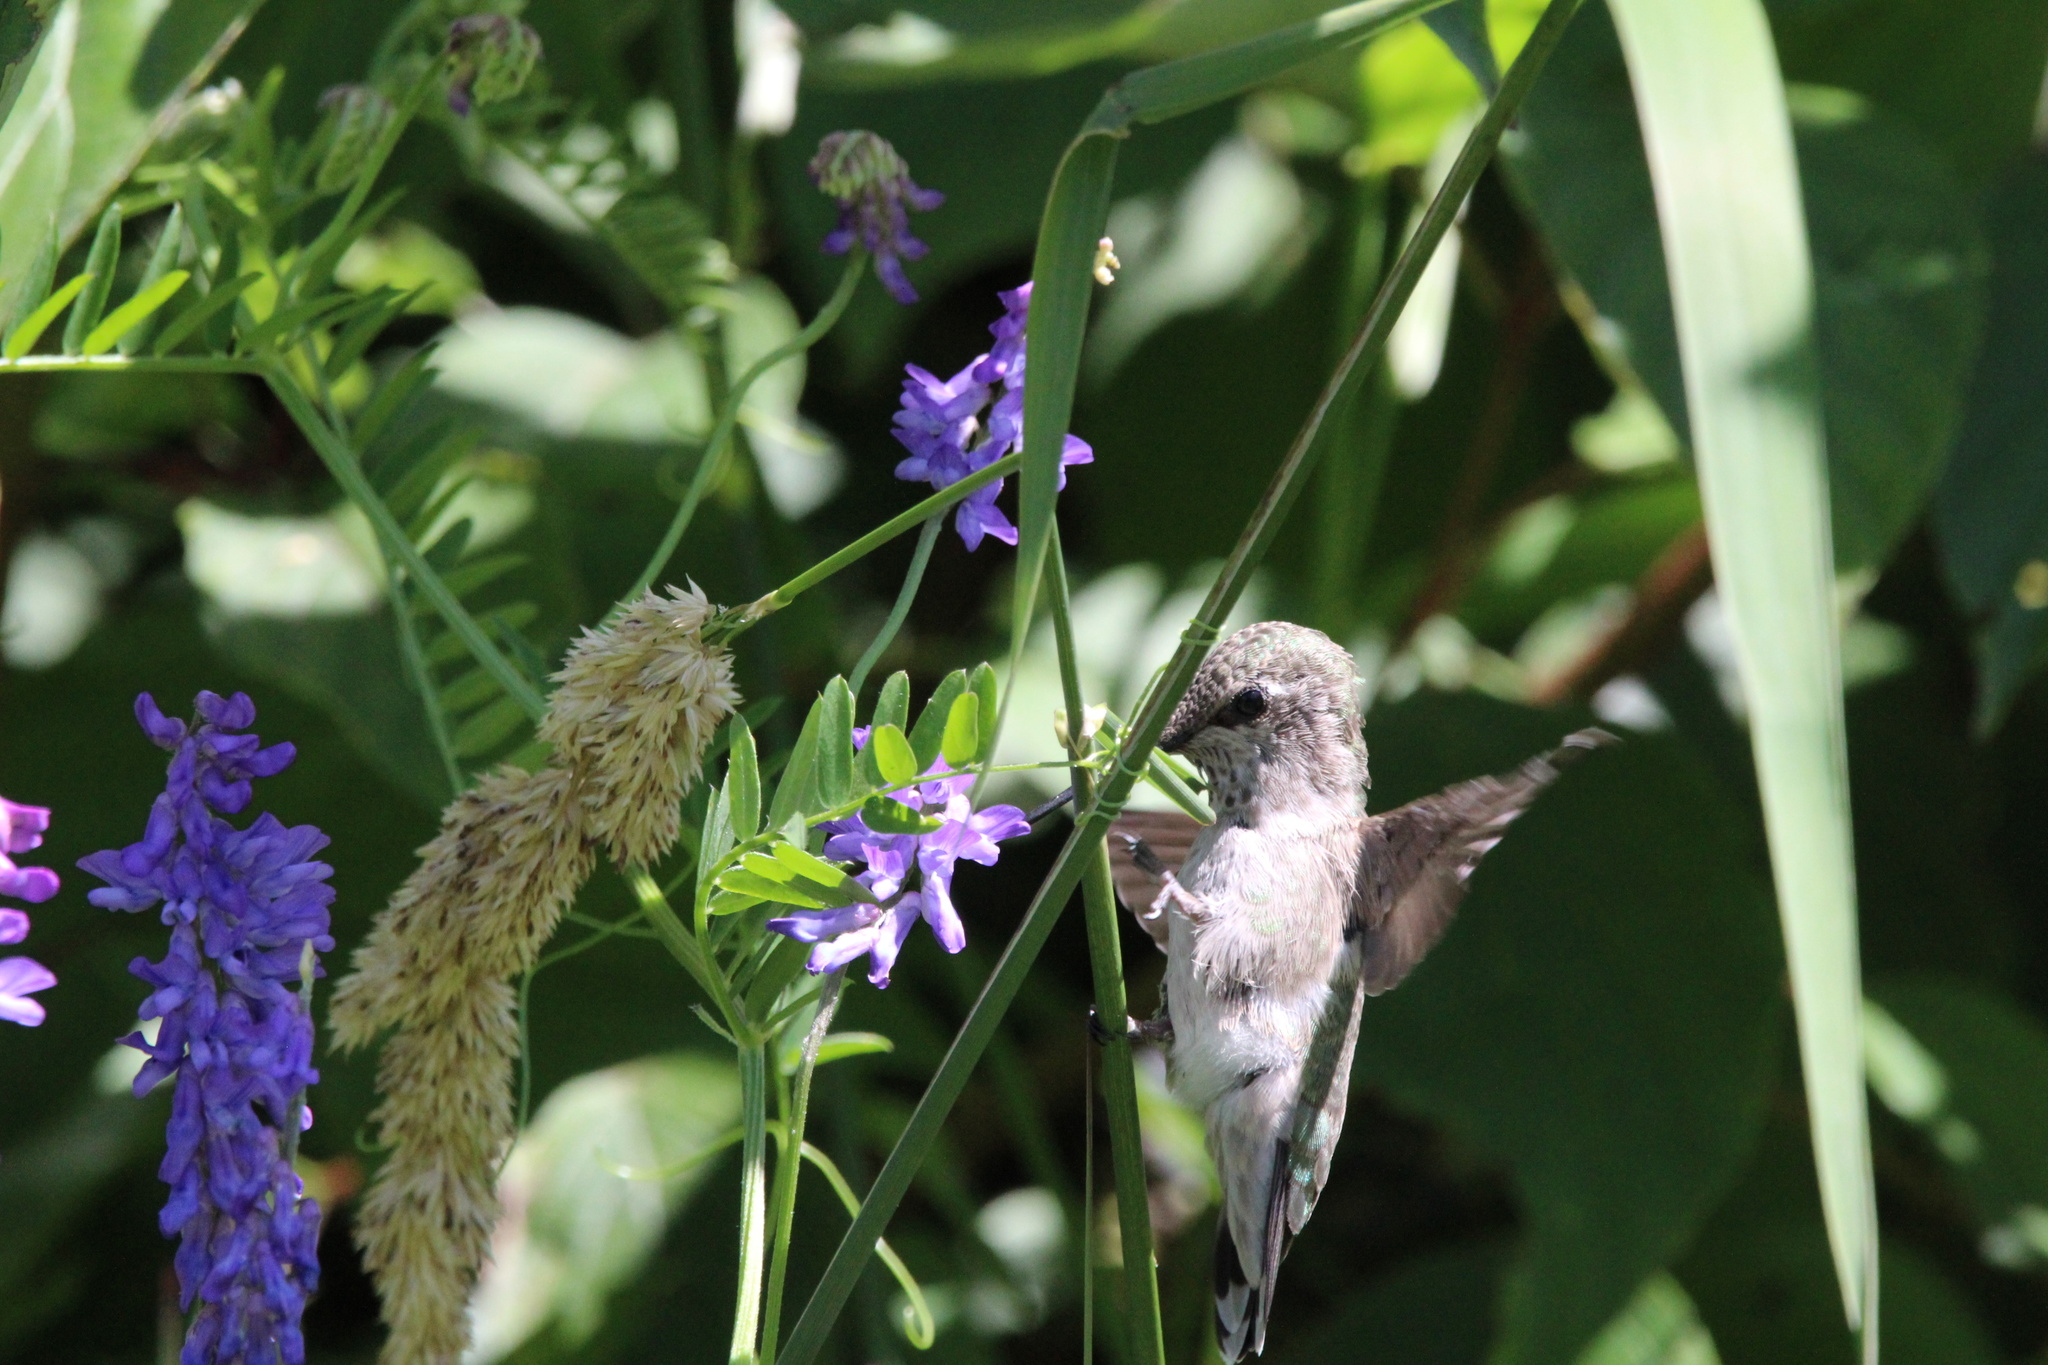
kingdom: Animalia
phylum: Chordata
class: Aves
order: Apodiformes
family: Trochilidae
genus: Calypte
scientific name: Calypte anna
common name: Anna's hummingbird
